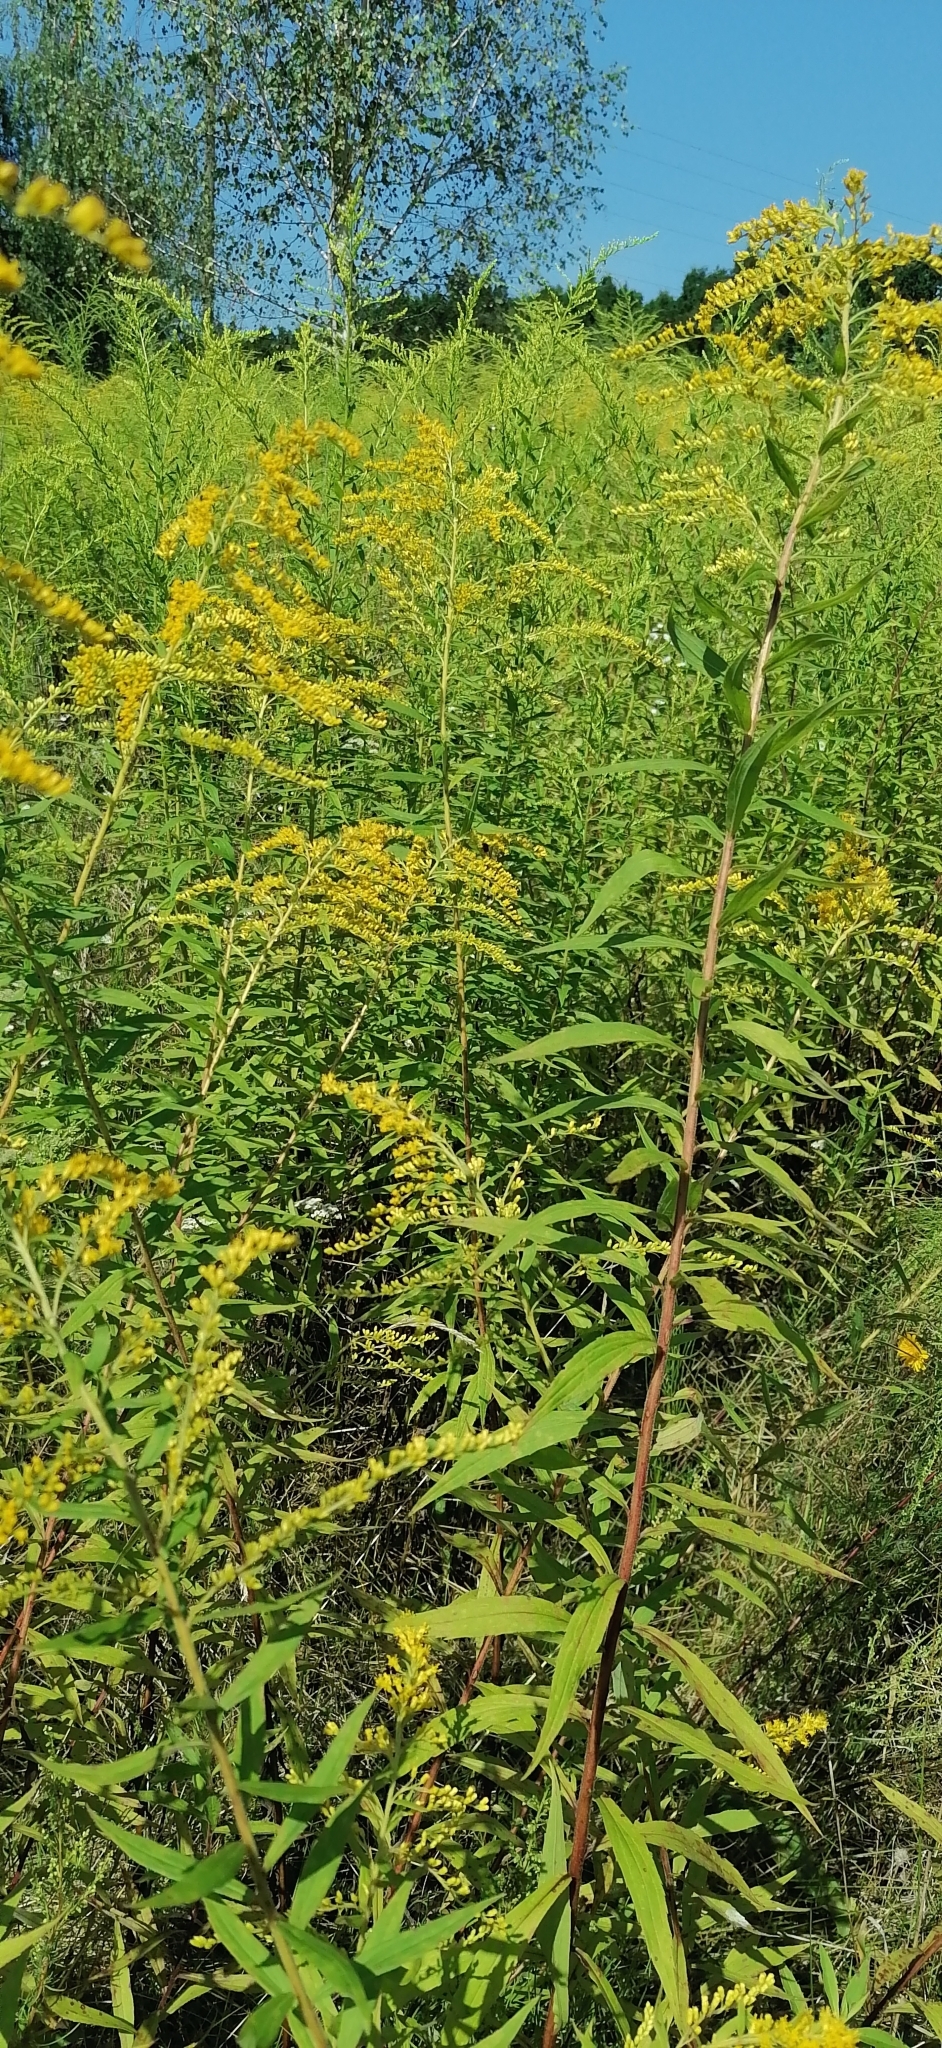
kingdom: Plantae
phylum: Tracheophyta
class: Magnoliopsida
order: Asterales
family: Asteraceae
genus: Solidago
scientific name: Solidago canadensis
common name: Canada goldenrod
